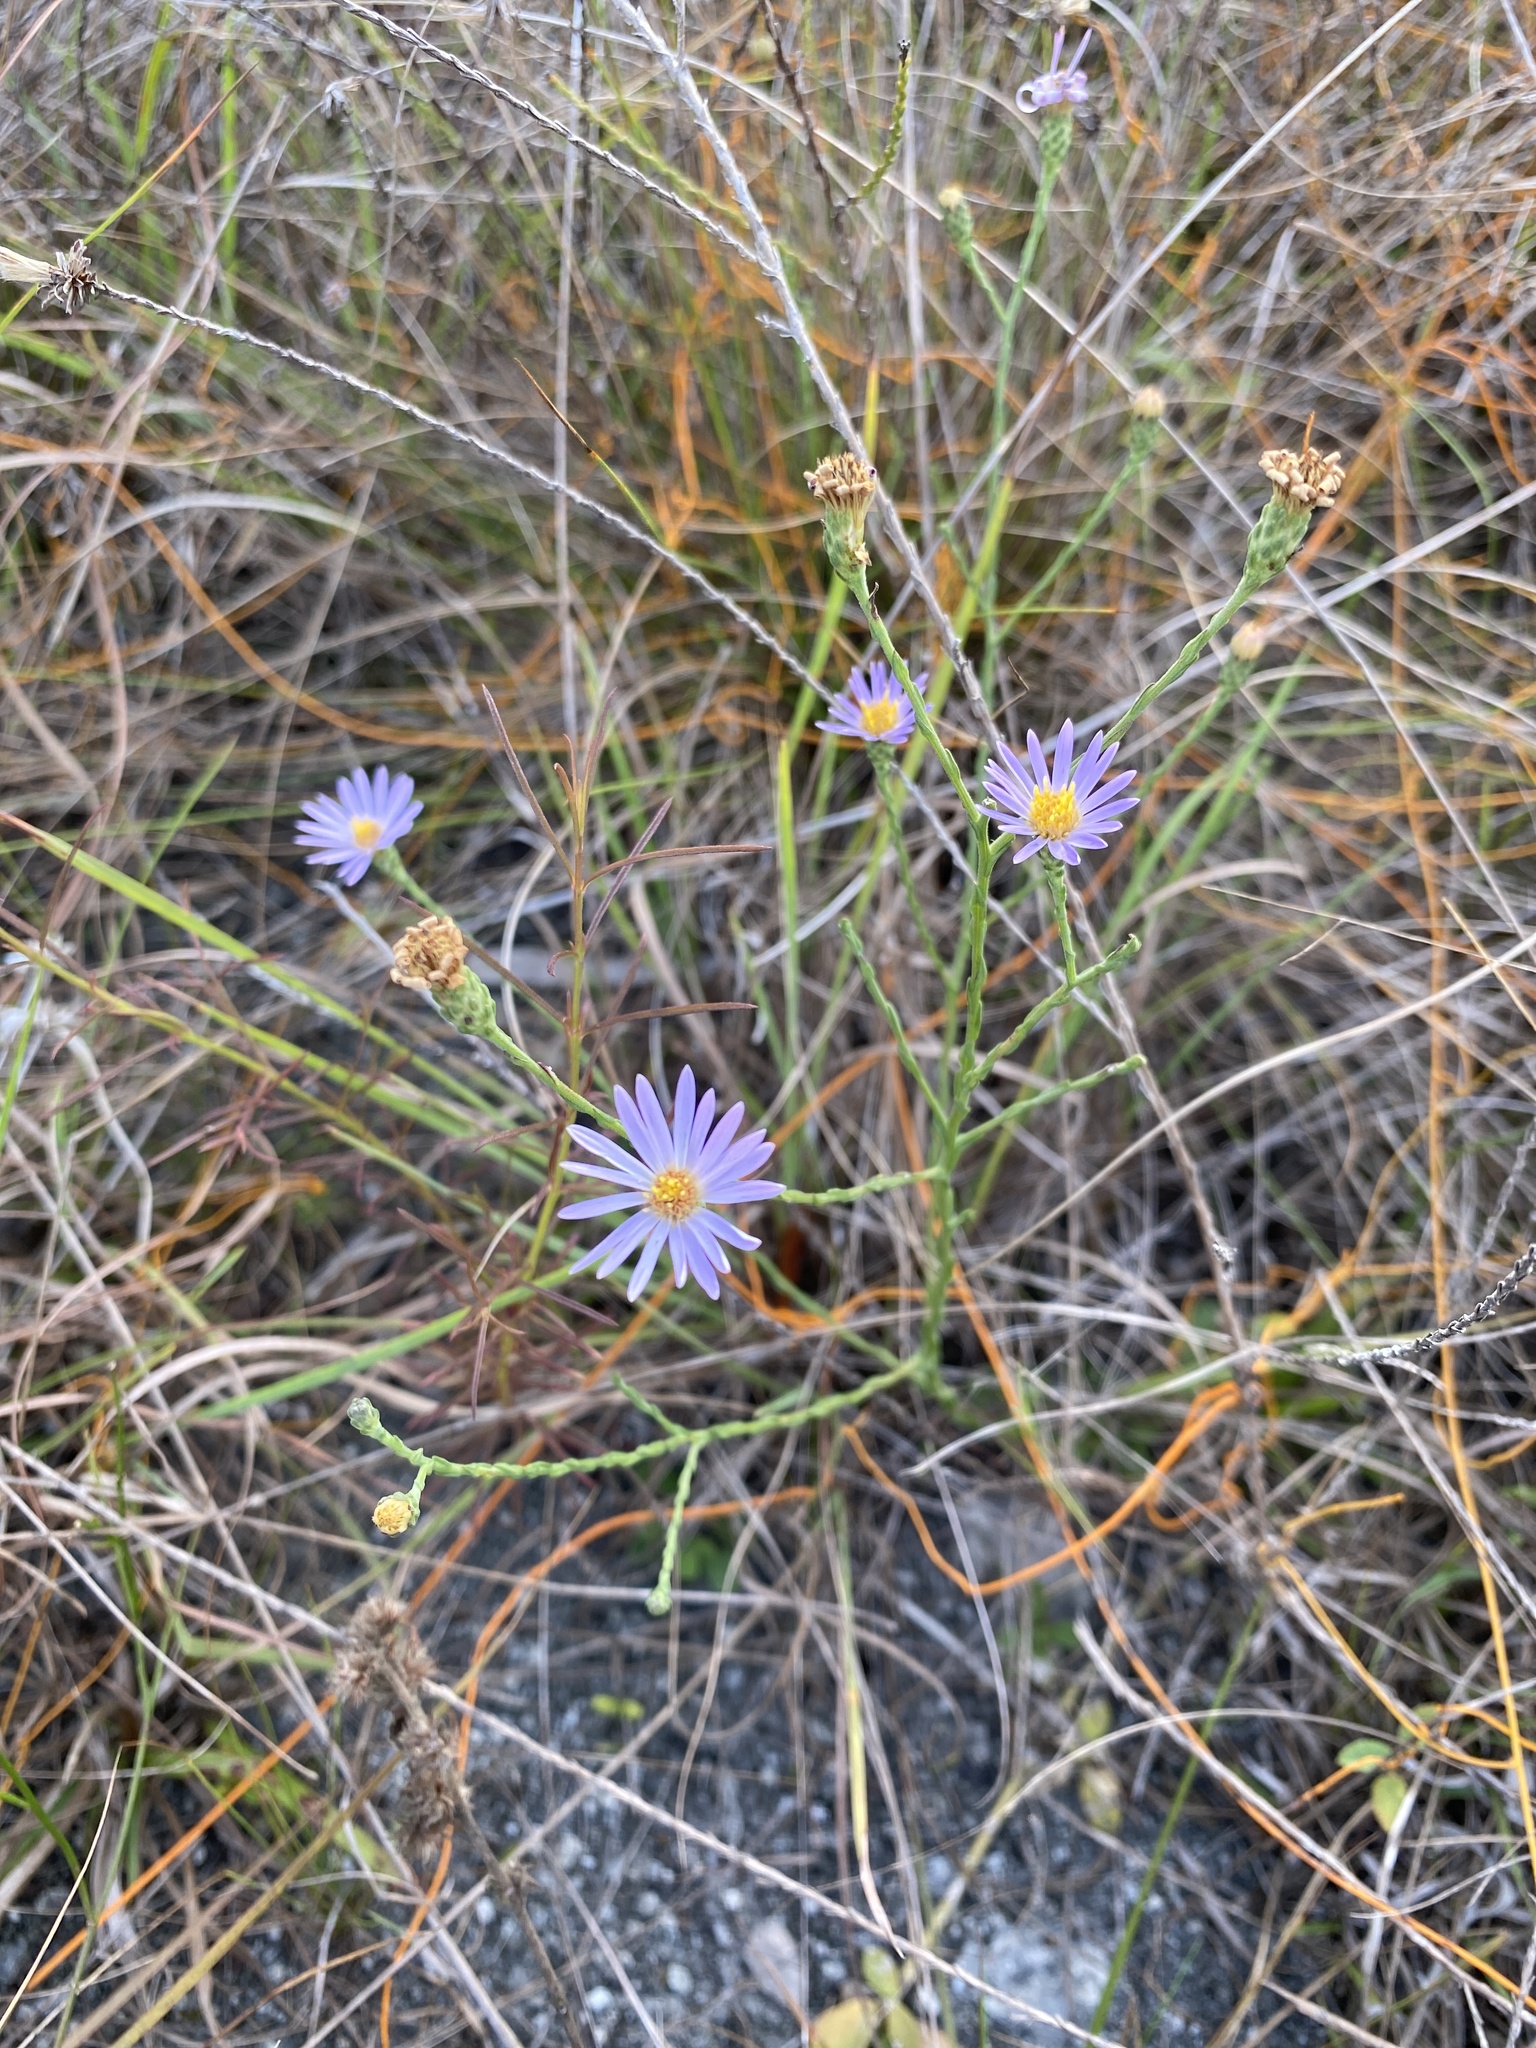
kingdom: Plantae
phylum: Tracheophyta
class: Magnoliopsida
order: Asterales
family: Asteraceae
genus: Symphyotrichum
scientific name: Symphyotrichum adnatum
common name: Scale-leaf aster
